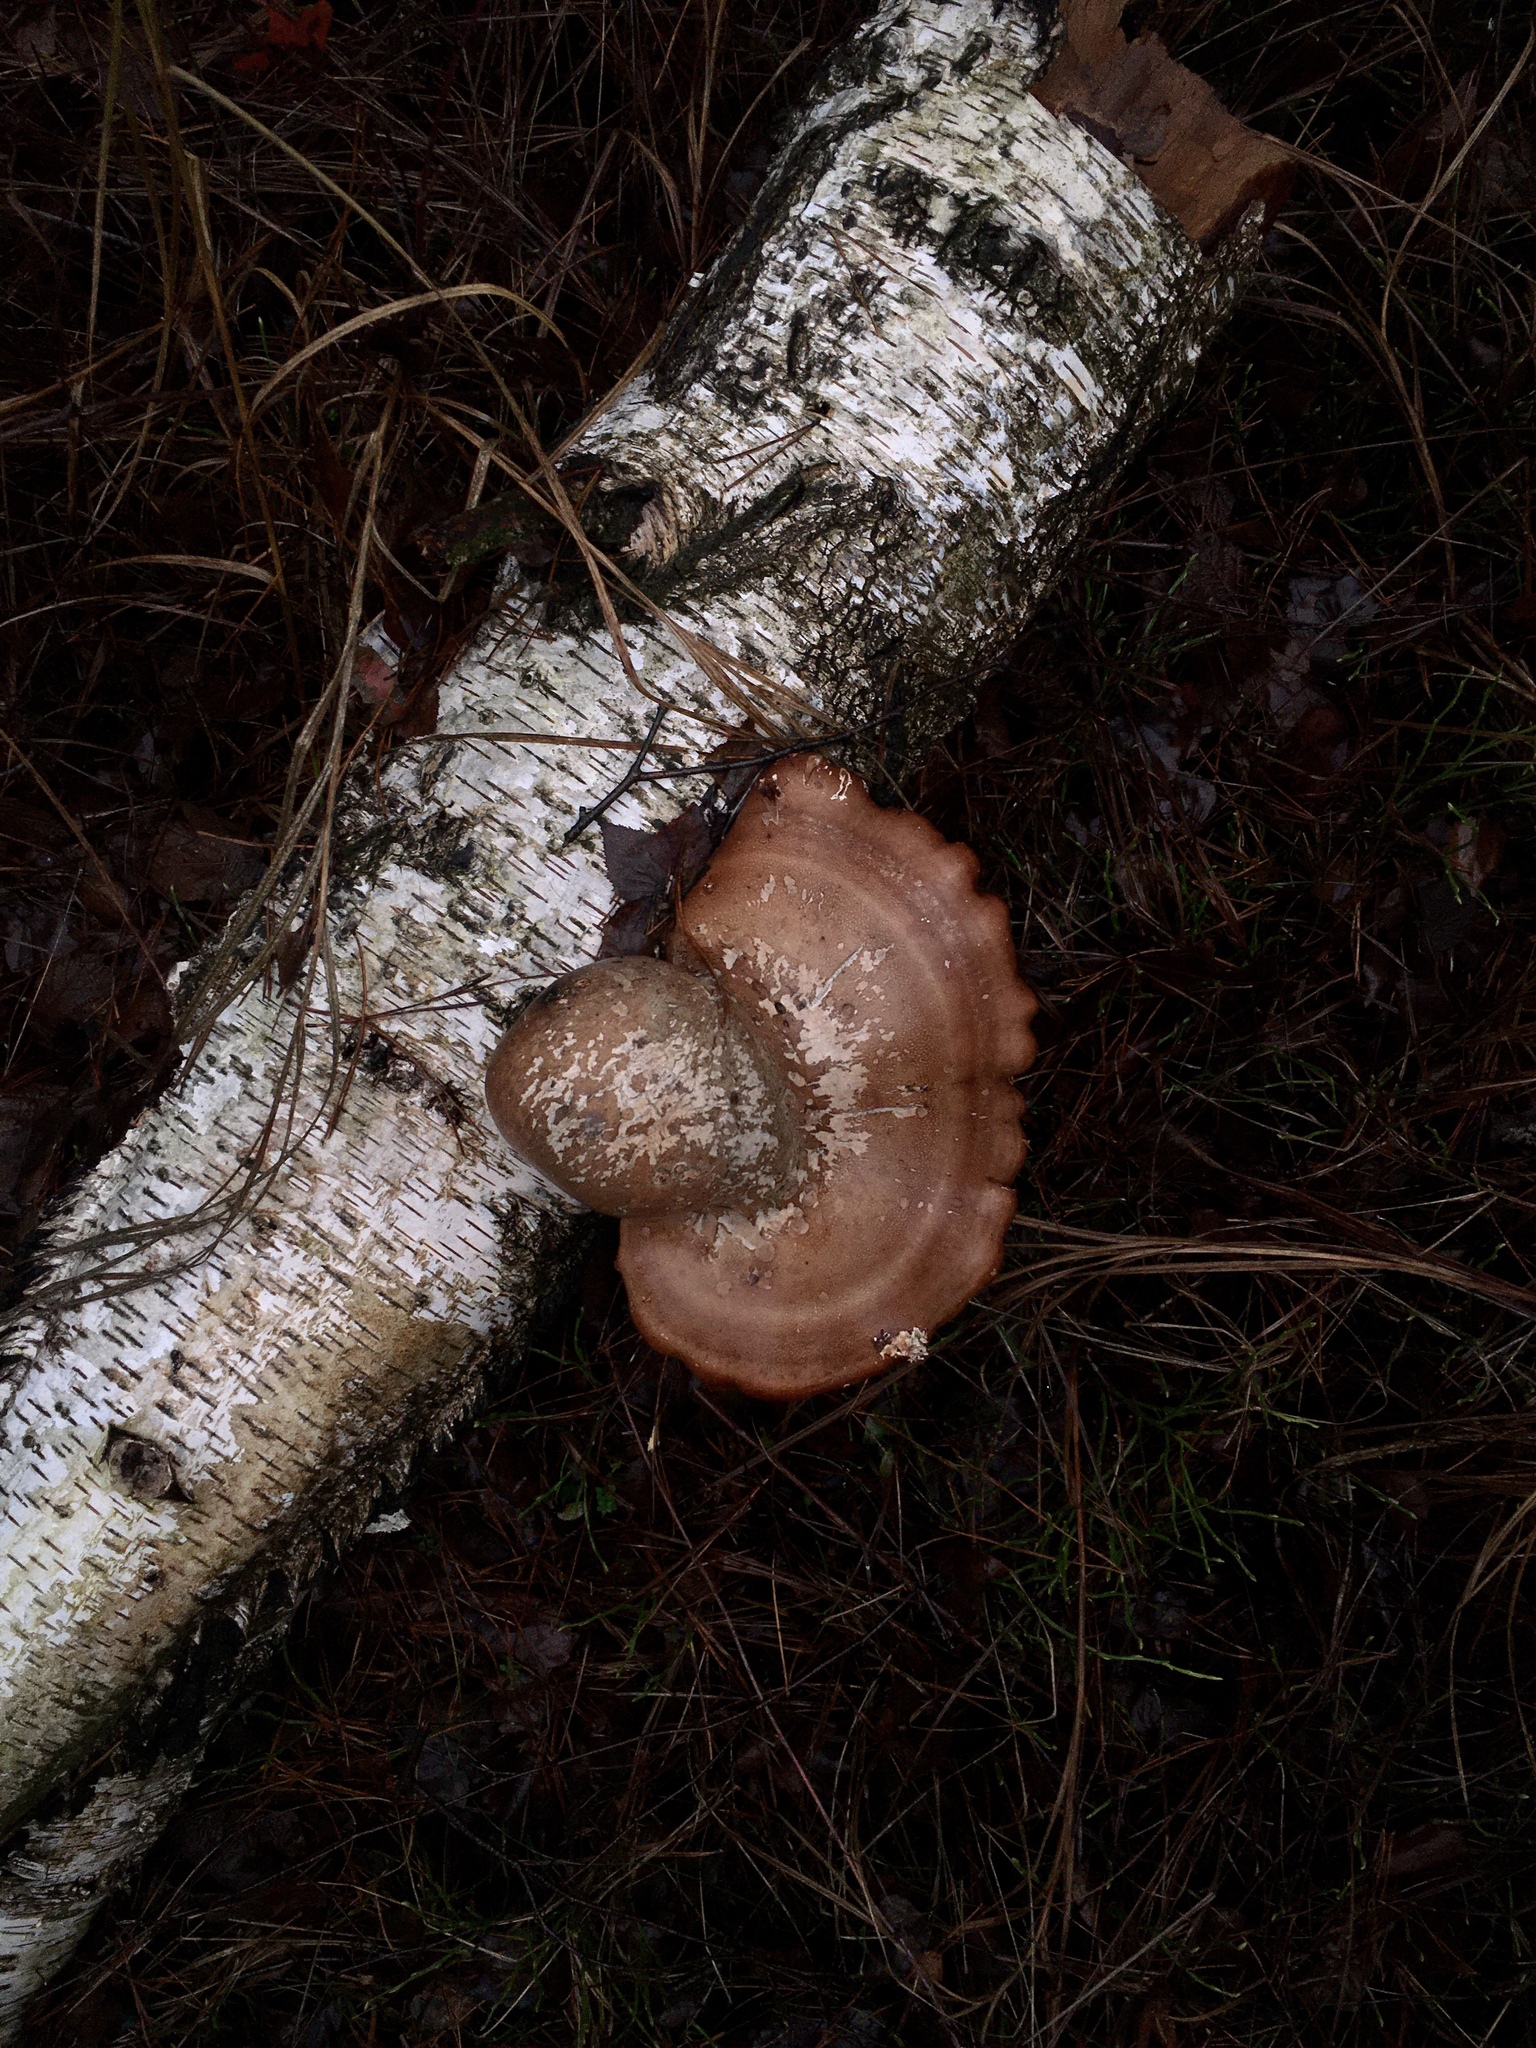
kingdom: Fungi
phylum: Basidiomycota
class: Agaricomycetes
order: Polyporales
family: Fomitopsidaceae
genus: Fomitopsis
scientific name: Fomitopsis betulina
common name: Birch polypore
